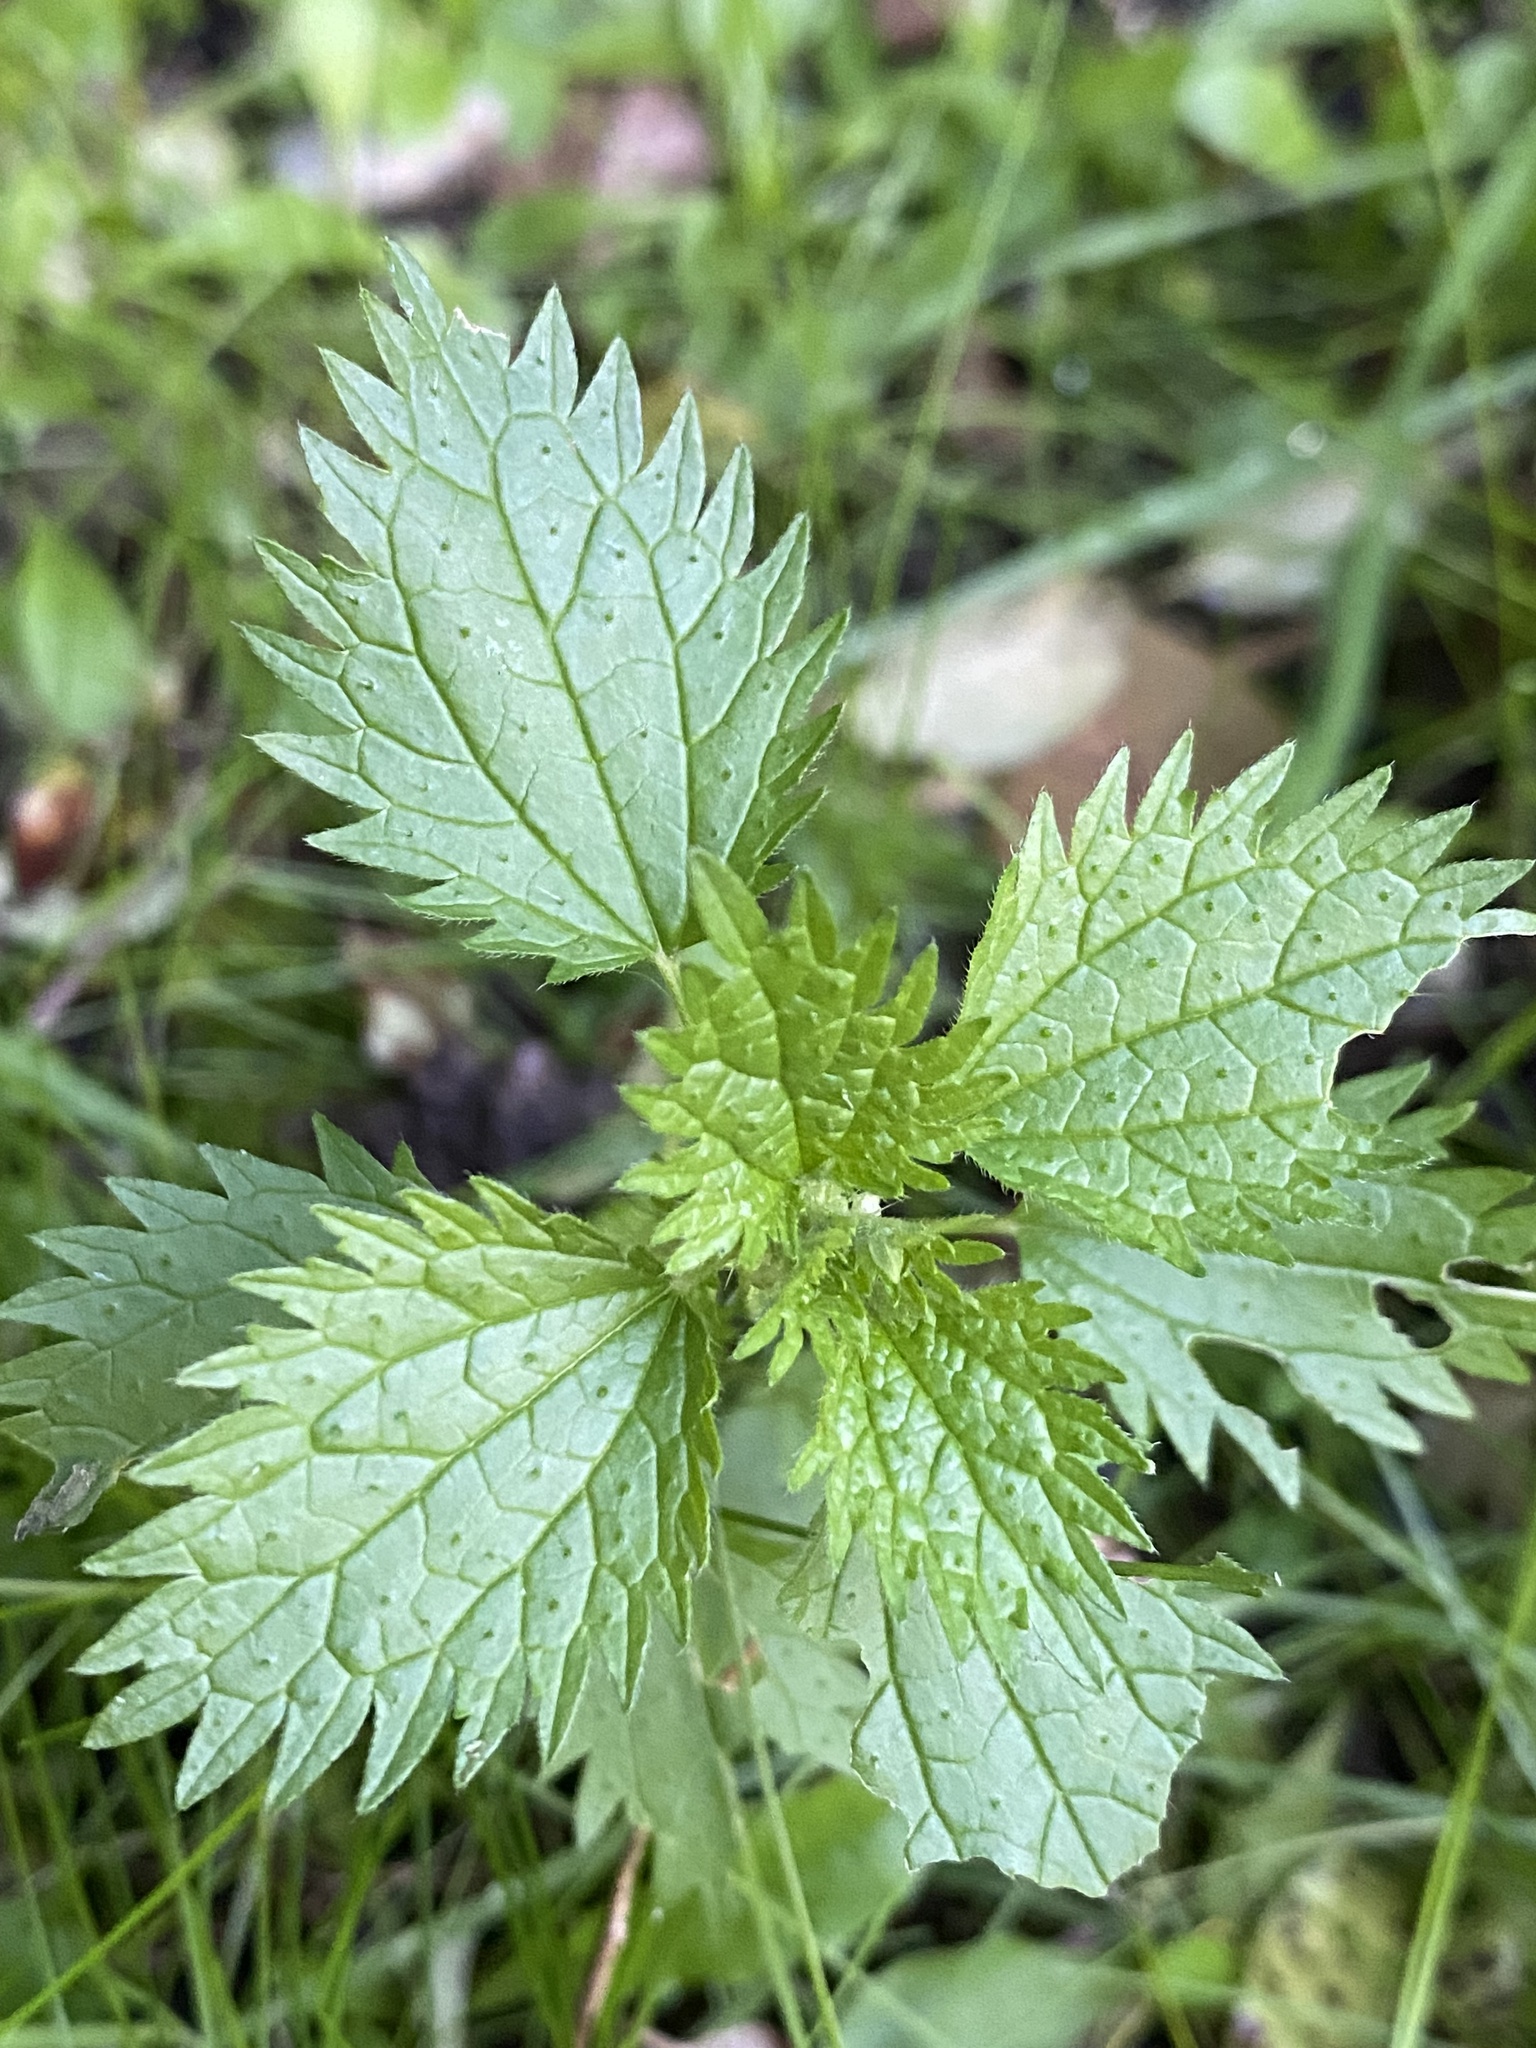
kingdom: Plantae
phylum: Tracheophyta
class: Magnoliopsida
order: Rosales
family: Urticaceae
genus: Urtica
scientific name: Urtica urens
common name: Dwarf nettle
